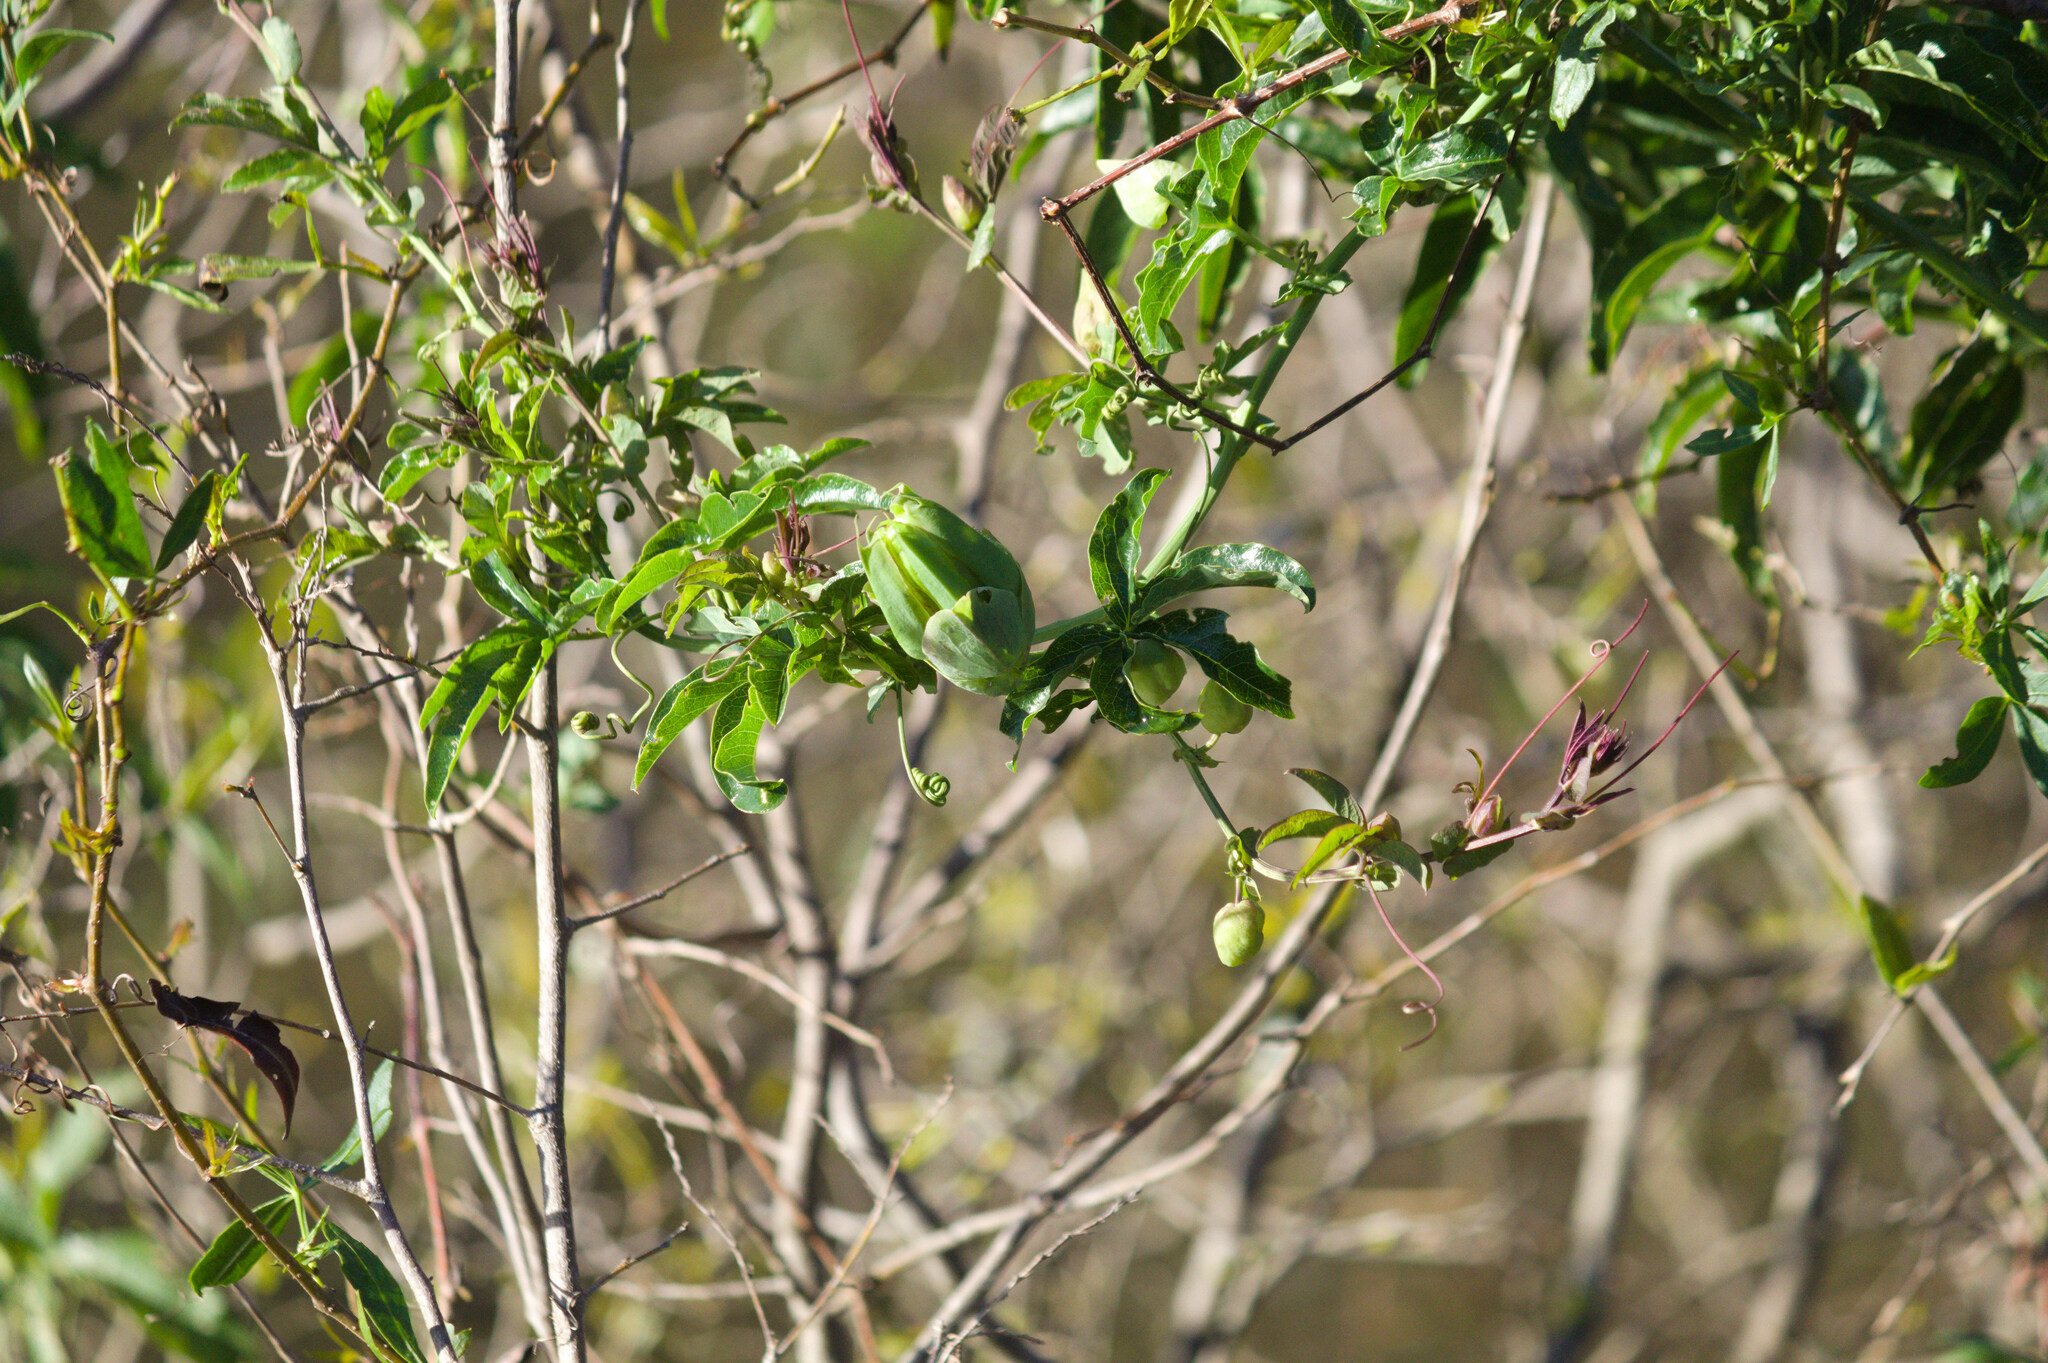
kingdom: Plantae
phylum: Tracheophyta
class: Magnoliopsida
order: Malpighiales
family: Passifloraceae
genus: Passiflora
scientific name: Passiflora caerulea
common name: Blue passionflower
